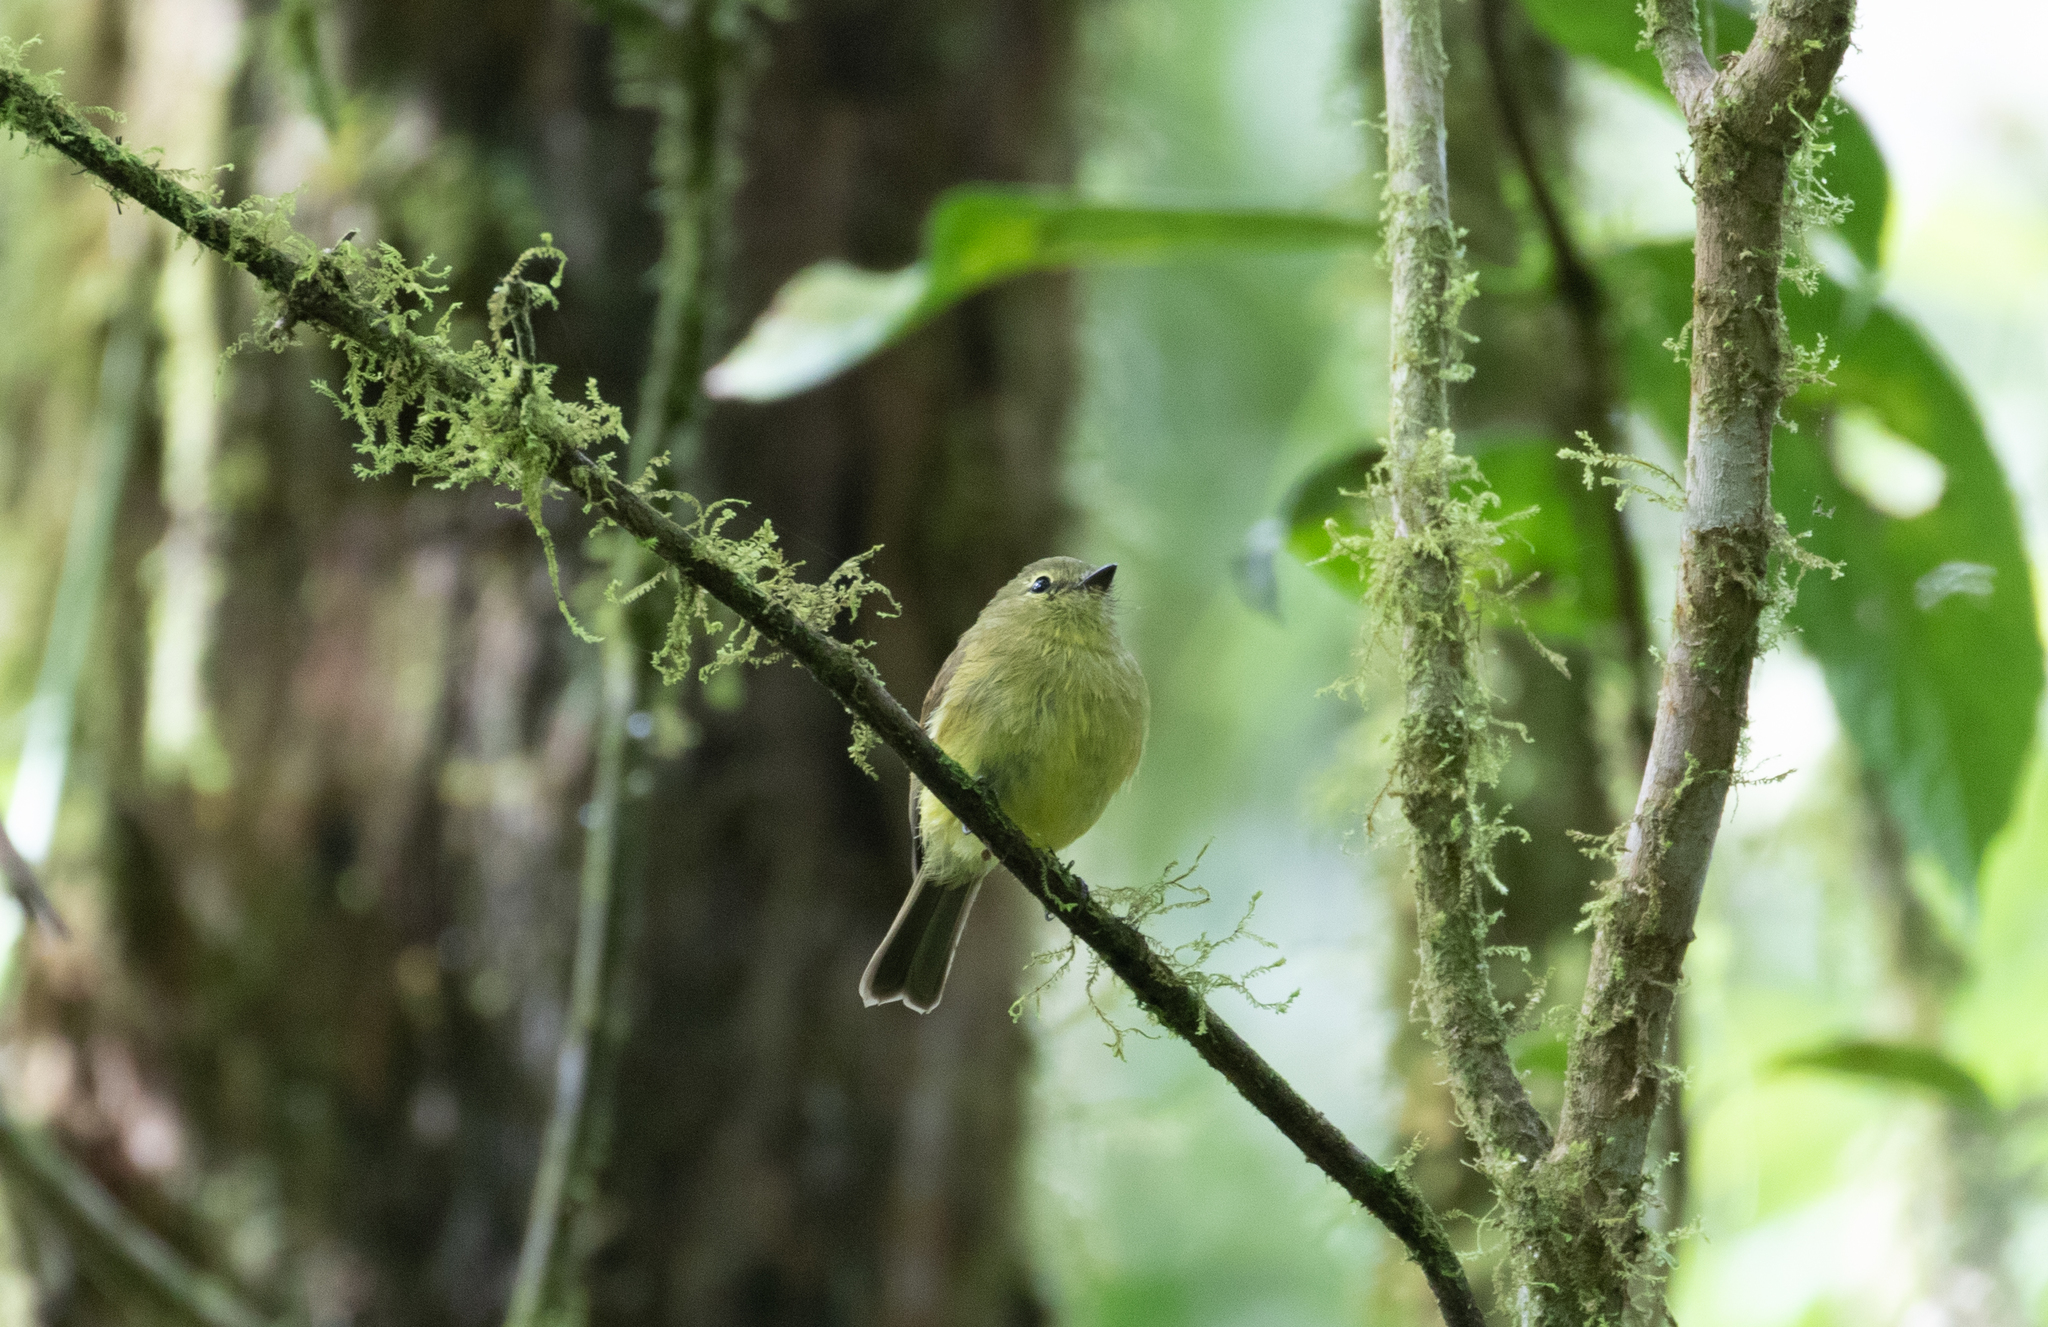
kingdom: Animalia
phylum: Chordata
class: Aves
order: Passeriformes
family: Tyrannidae
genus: Myiophobus
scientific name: Myiophobus flavicans
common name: Flavescent flycatcher
